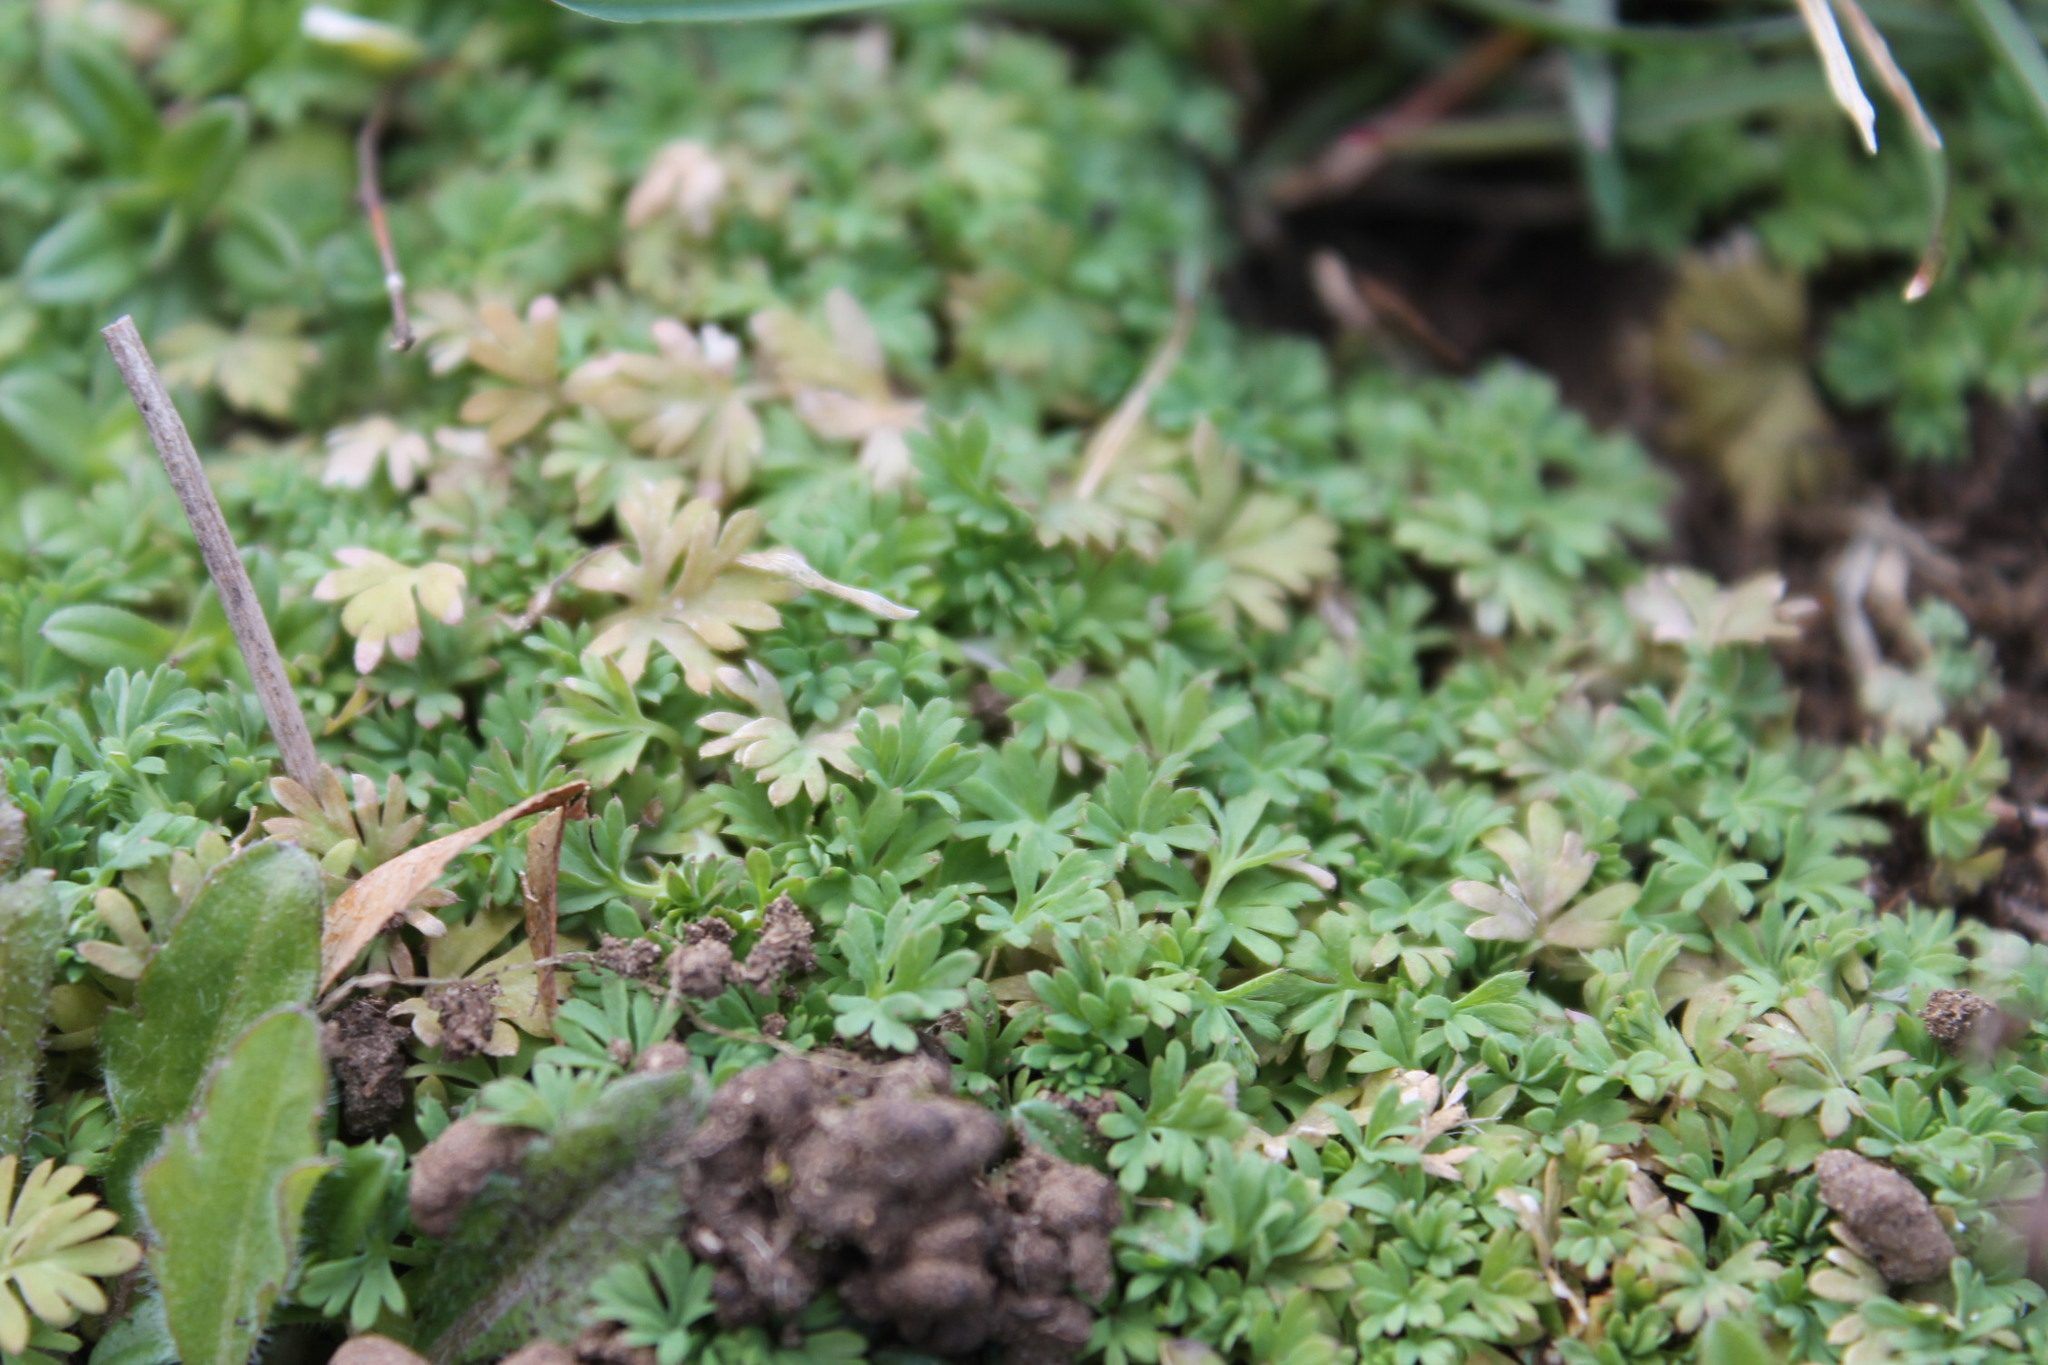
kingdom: Plantae
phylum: Tracheophyta
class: Magnoliopsida
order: Rosales
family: Rosaceae
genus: Aphanes
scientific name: Aphanes australis
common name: Slender parsley-piert
